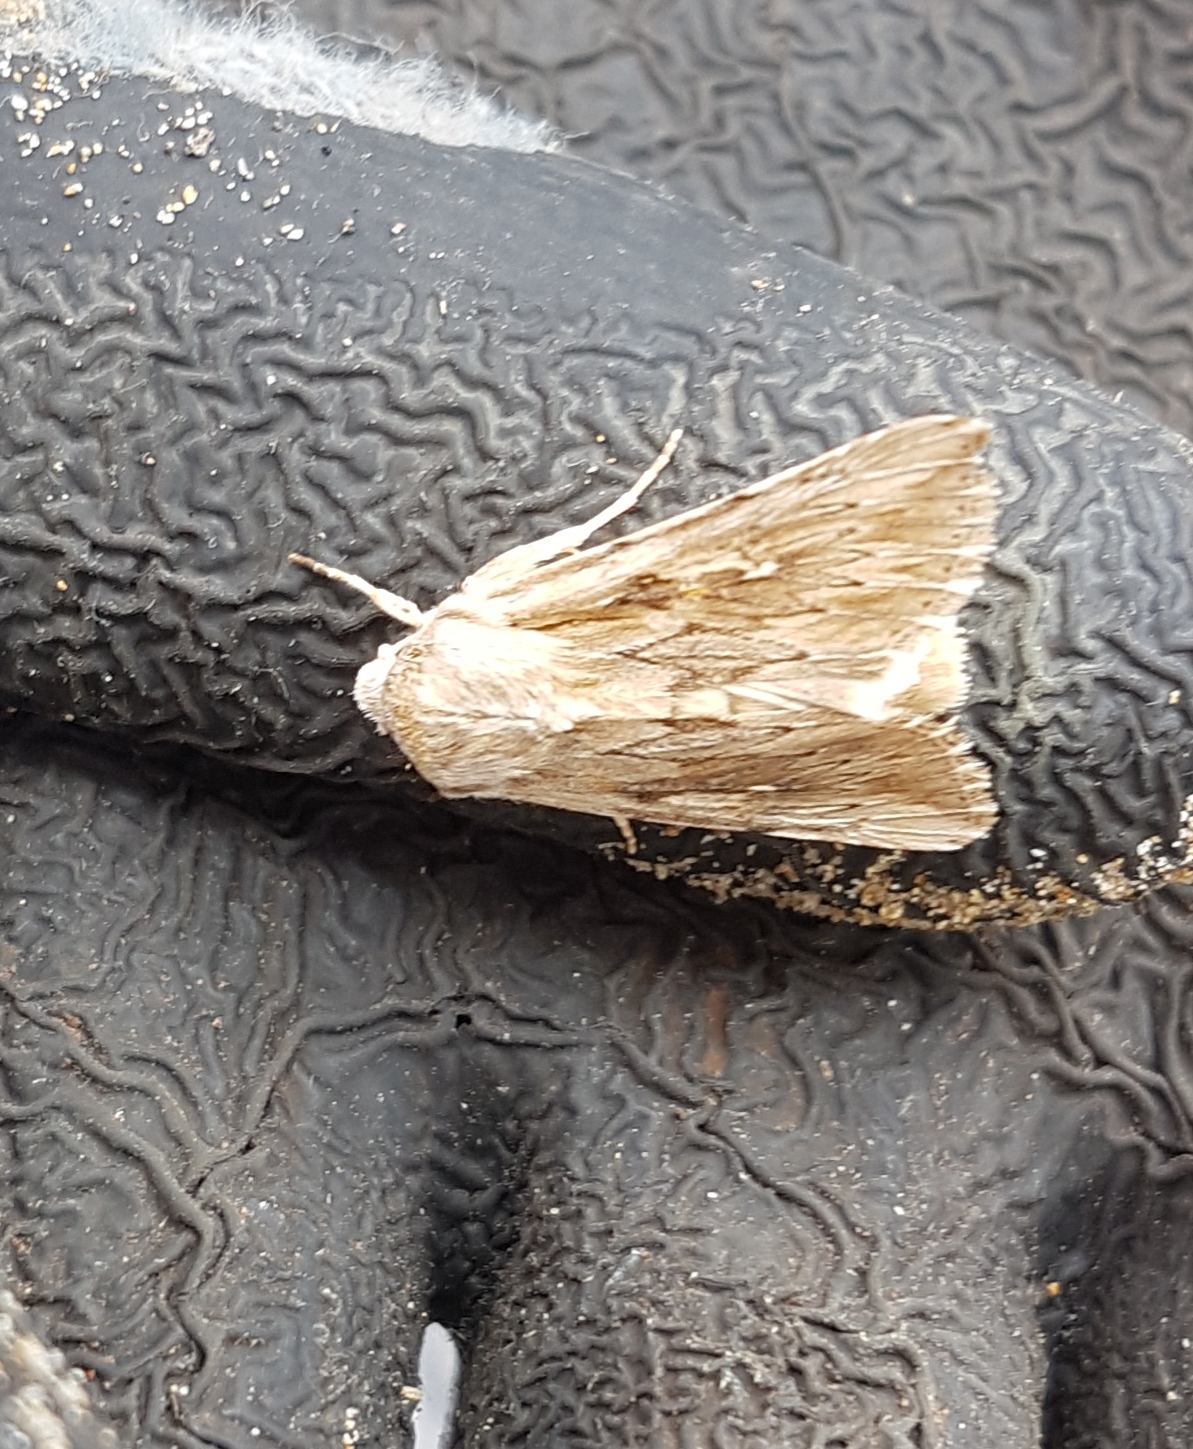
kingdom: Animalia
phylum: Arthropoda
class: Insecta
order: Lepidoptera
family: Noctuidae
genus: Persectania
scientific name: Persectania ewingii
